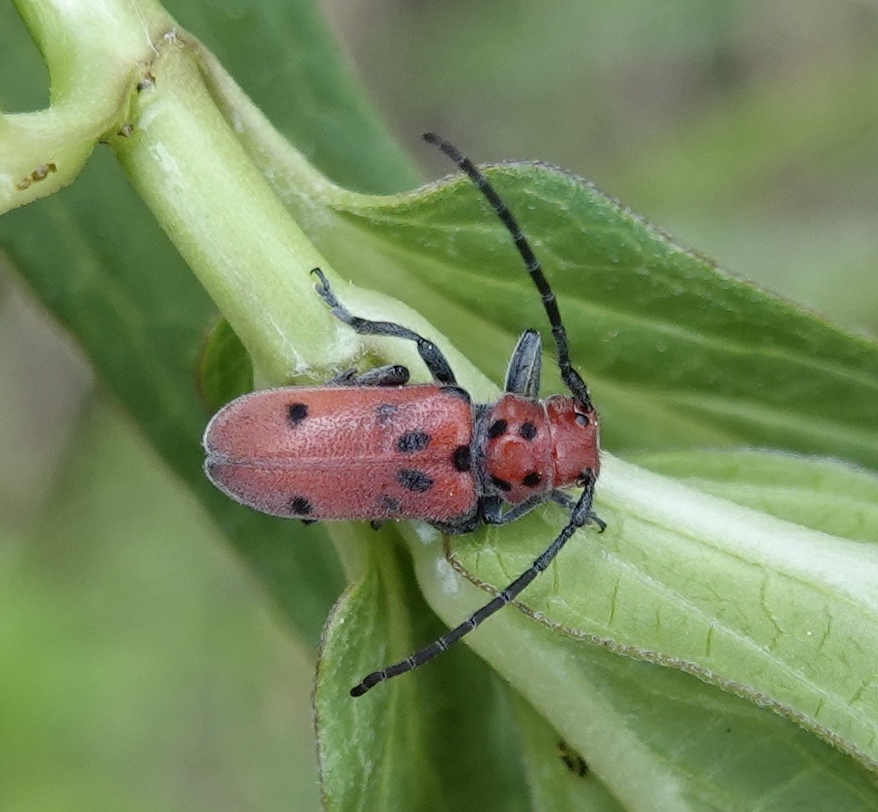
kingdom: Animalia
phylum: Arthropoda
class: Insecta
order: Coleoptera
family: Cerambycidae
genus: Tetraopes
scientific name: Tetraopes tetrophthalmus
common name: Red milkweed beetle
